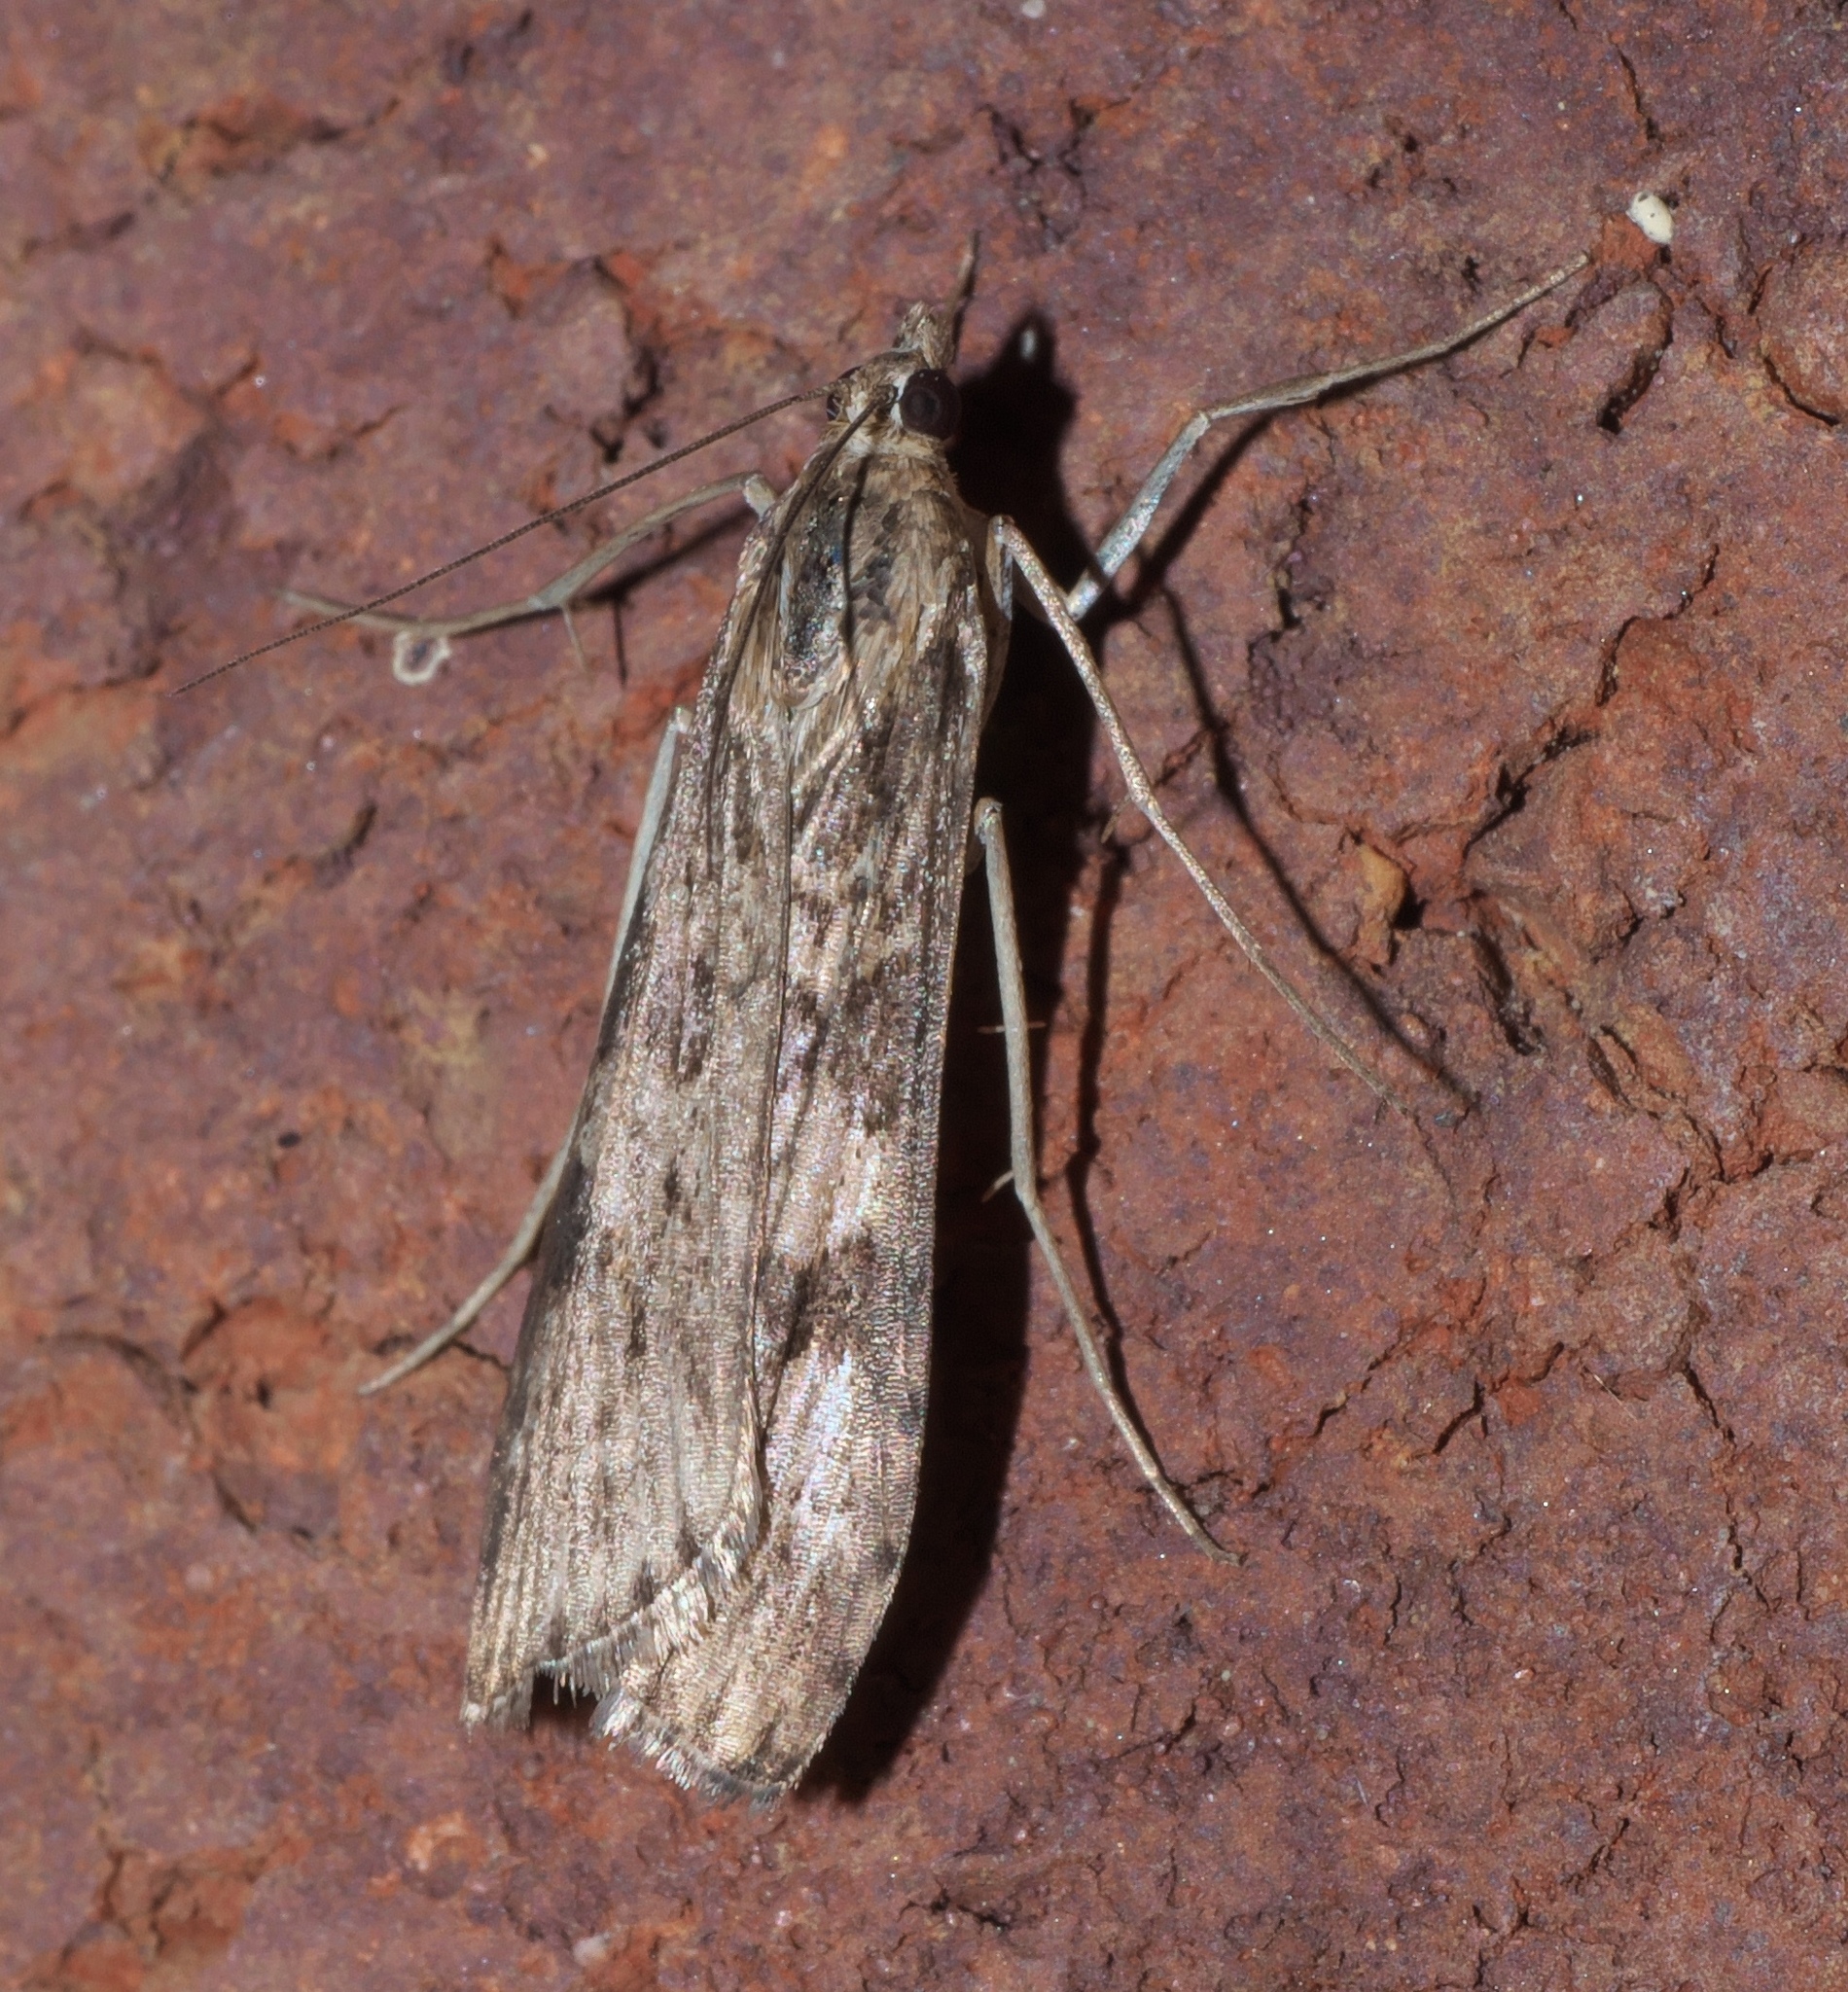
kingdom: Animalia
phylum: Arthropoda
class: Insecta
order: Lepidoptera
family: Crambidae
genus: Nomophila
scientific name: Nomophila nearctica
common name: American rush veneer
